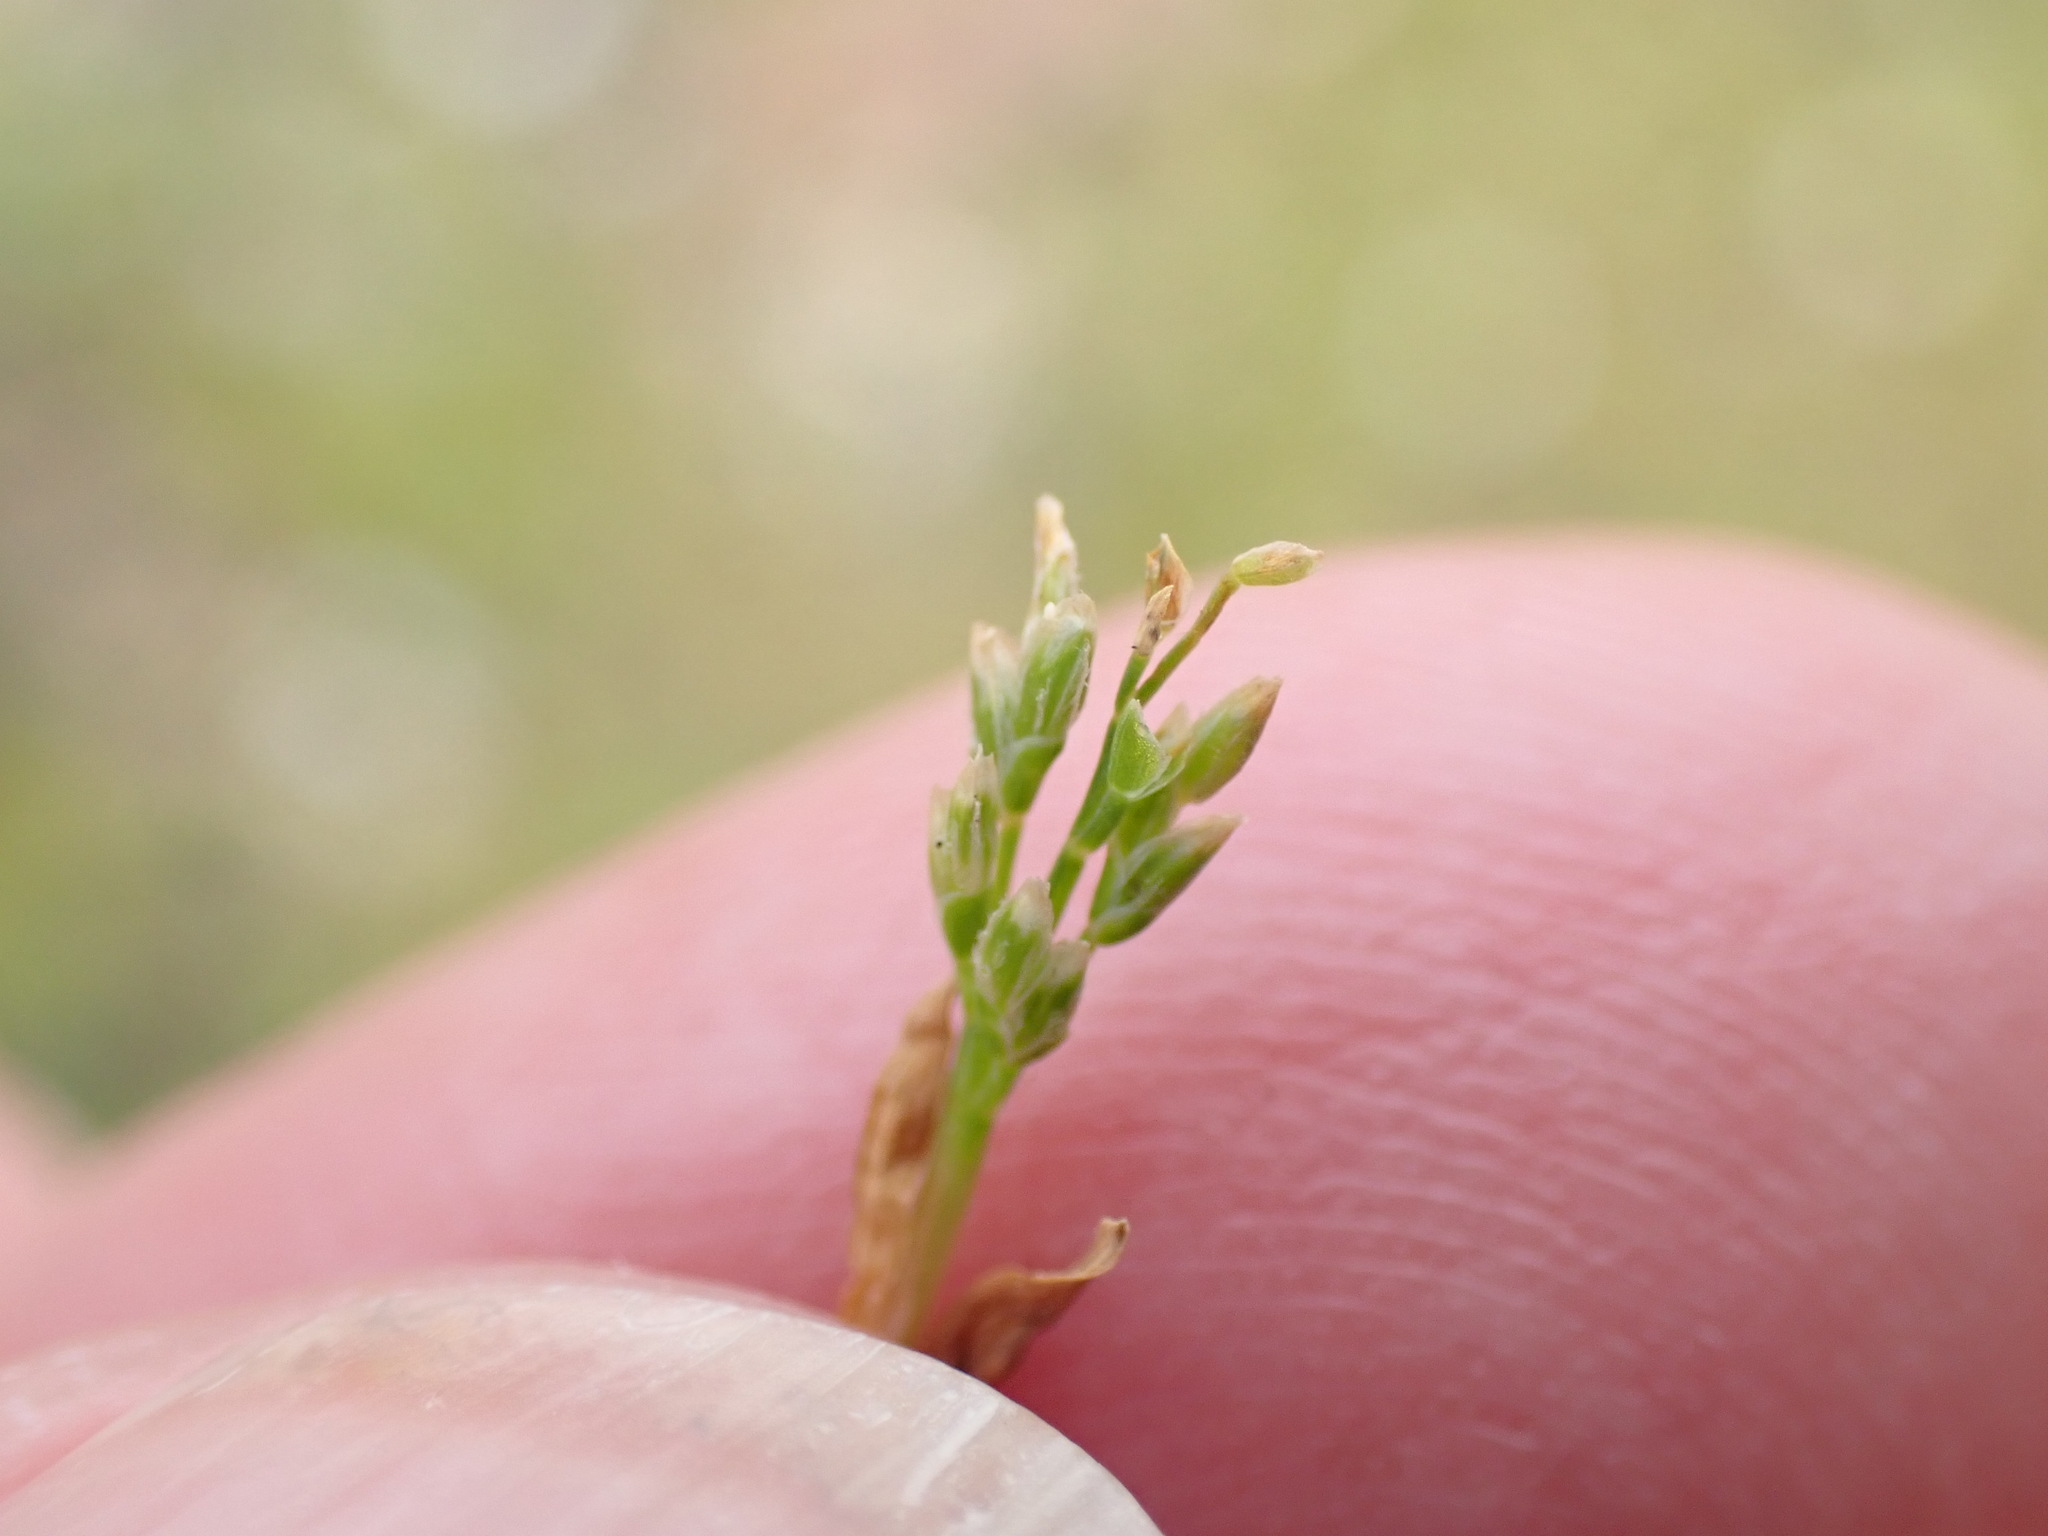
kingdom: Plantae
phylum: Tracheophyta
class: Liliopsida
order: Poales
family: Poaceae
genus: Poa
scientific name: Poa infirma
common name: Weak bluegrass
